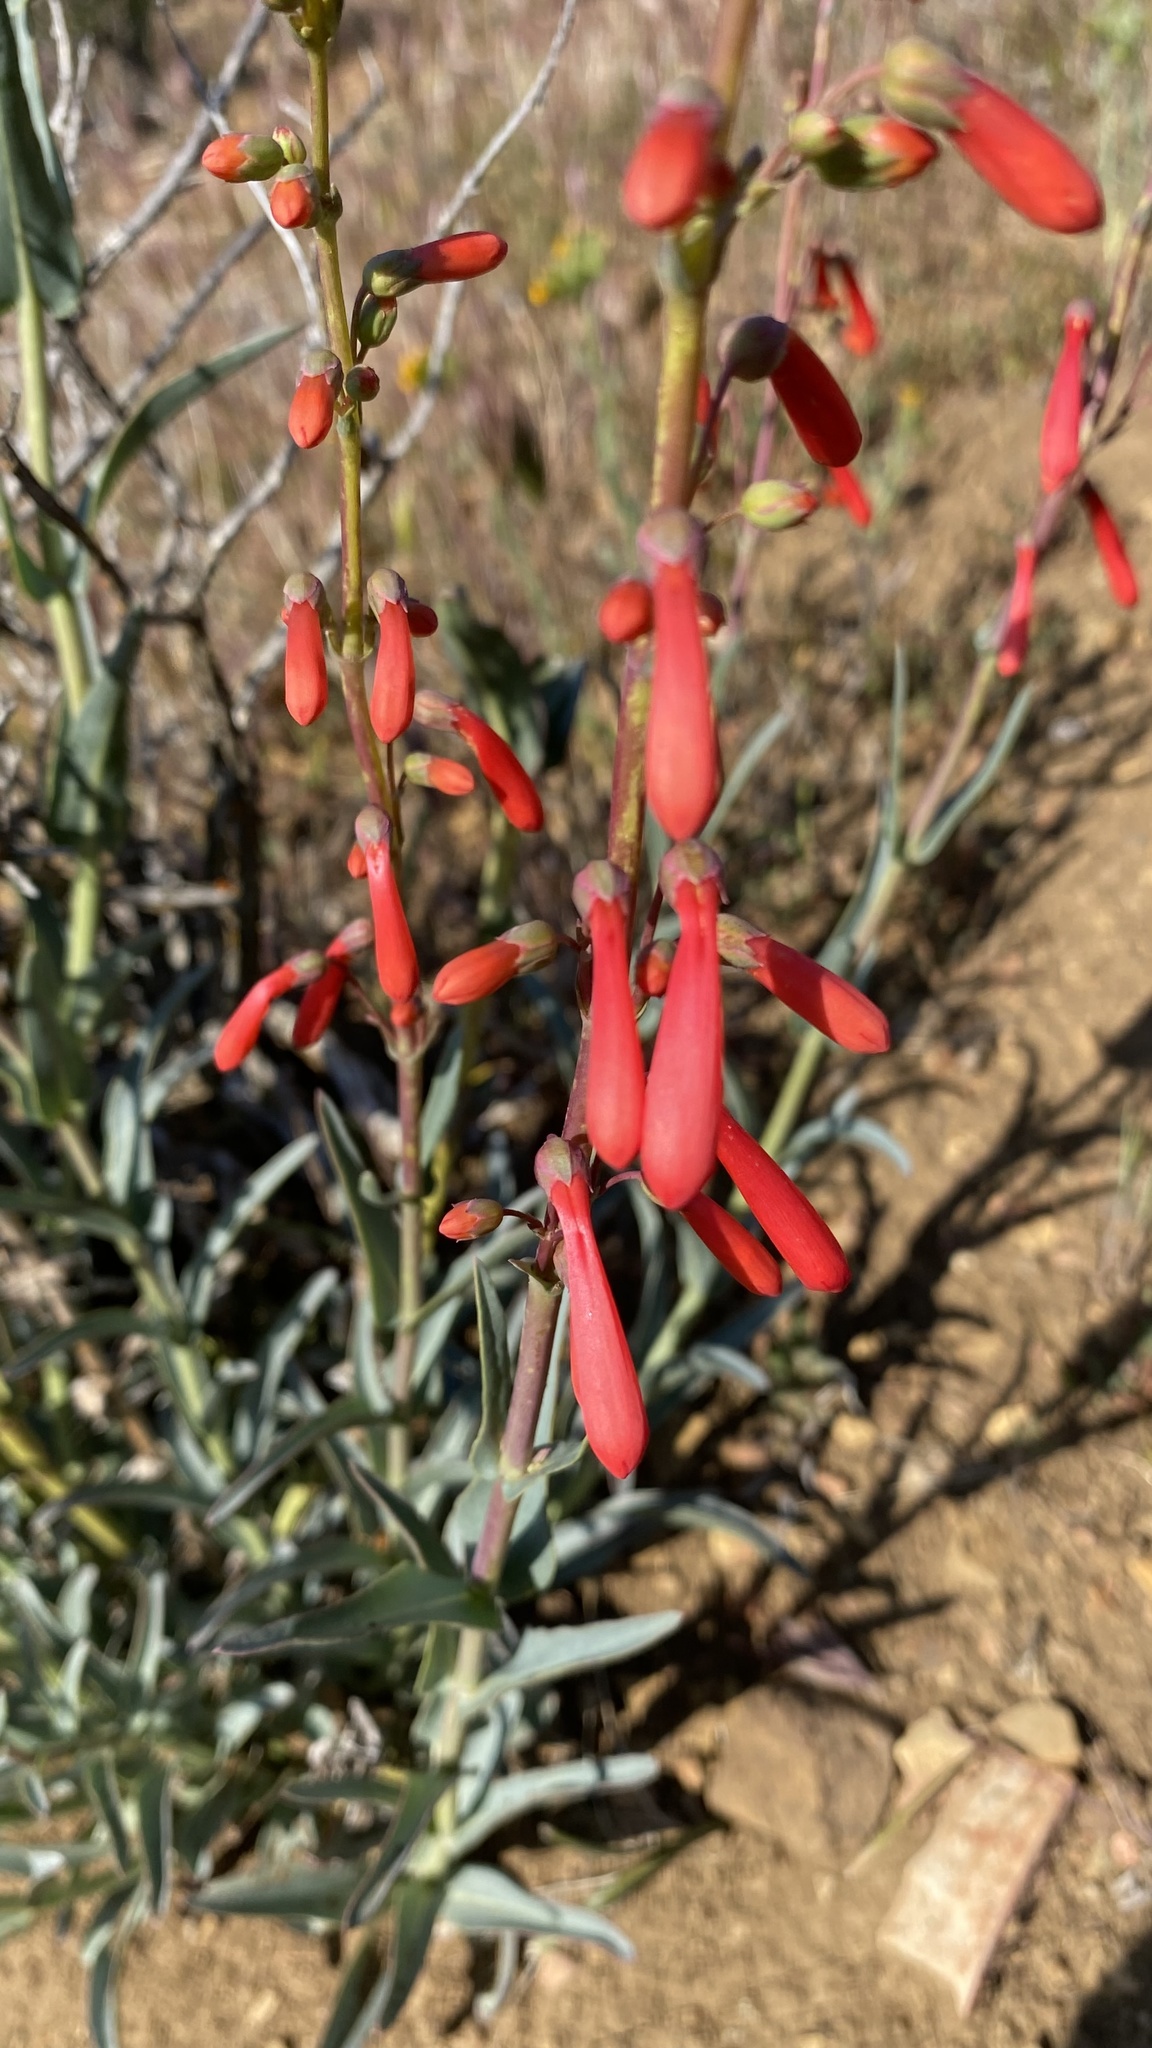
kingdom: Plantae
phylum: Tracheophyta
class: Magnoliopsida
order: Lamiales
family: Plantaginaceae
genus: Penstemon
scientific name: Penstemon centranthifolius
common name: Scarlet bugler
